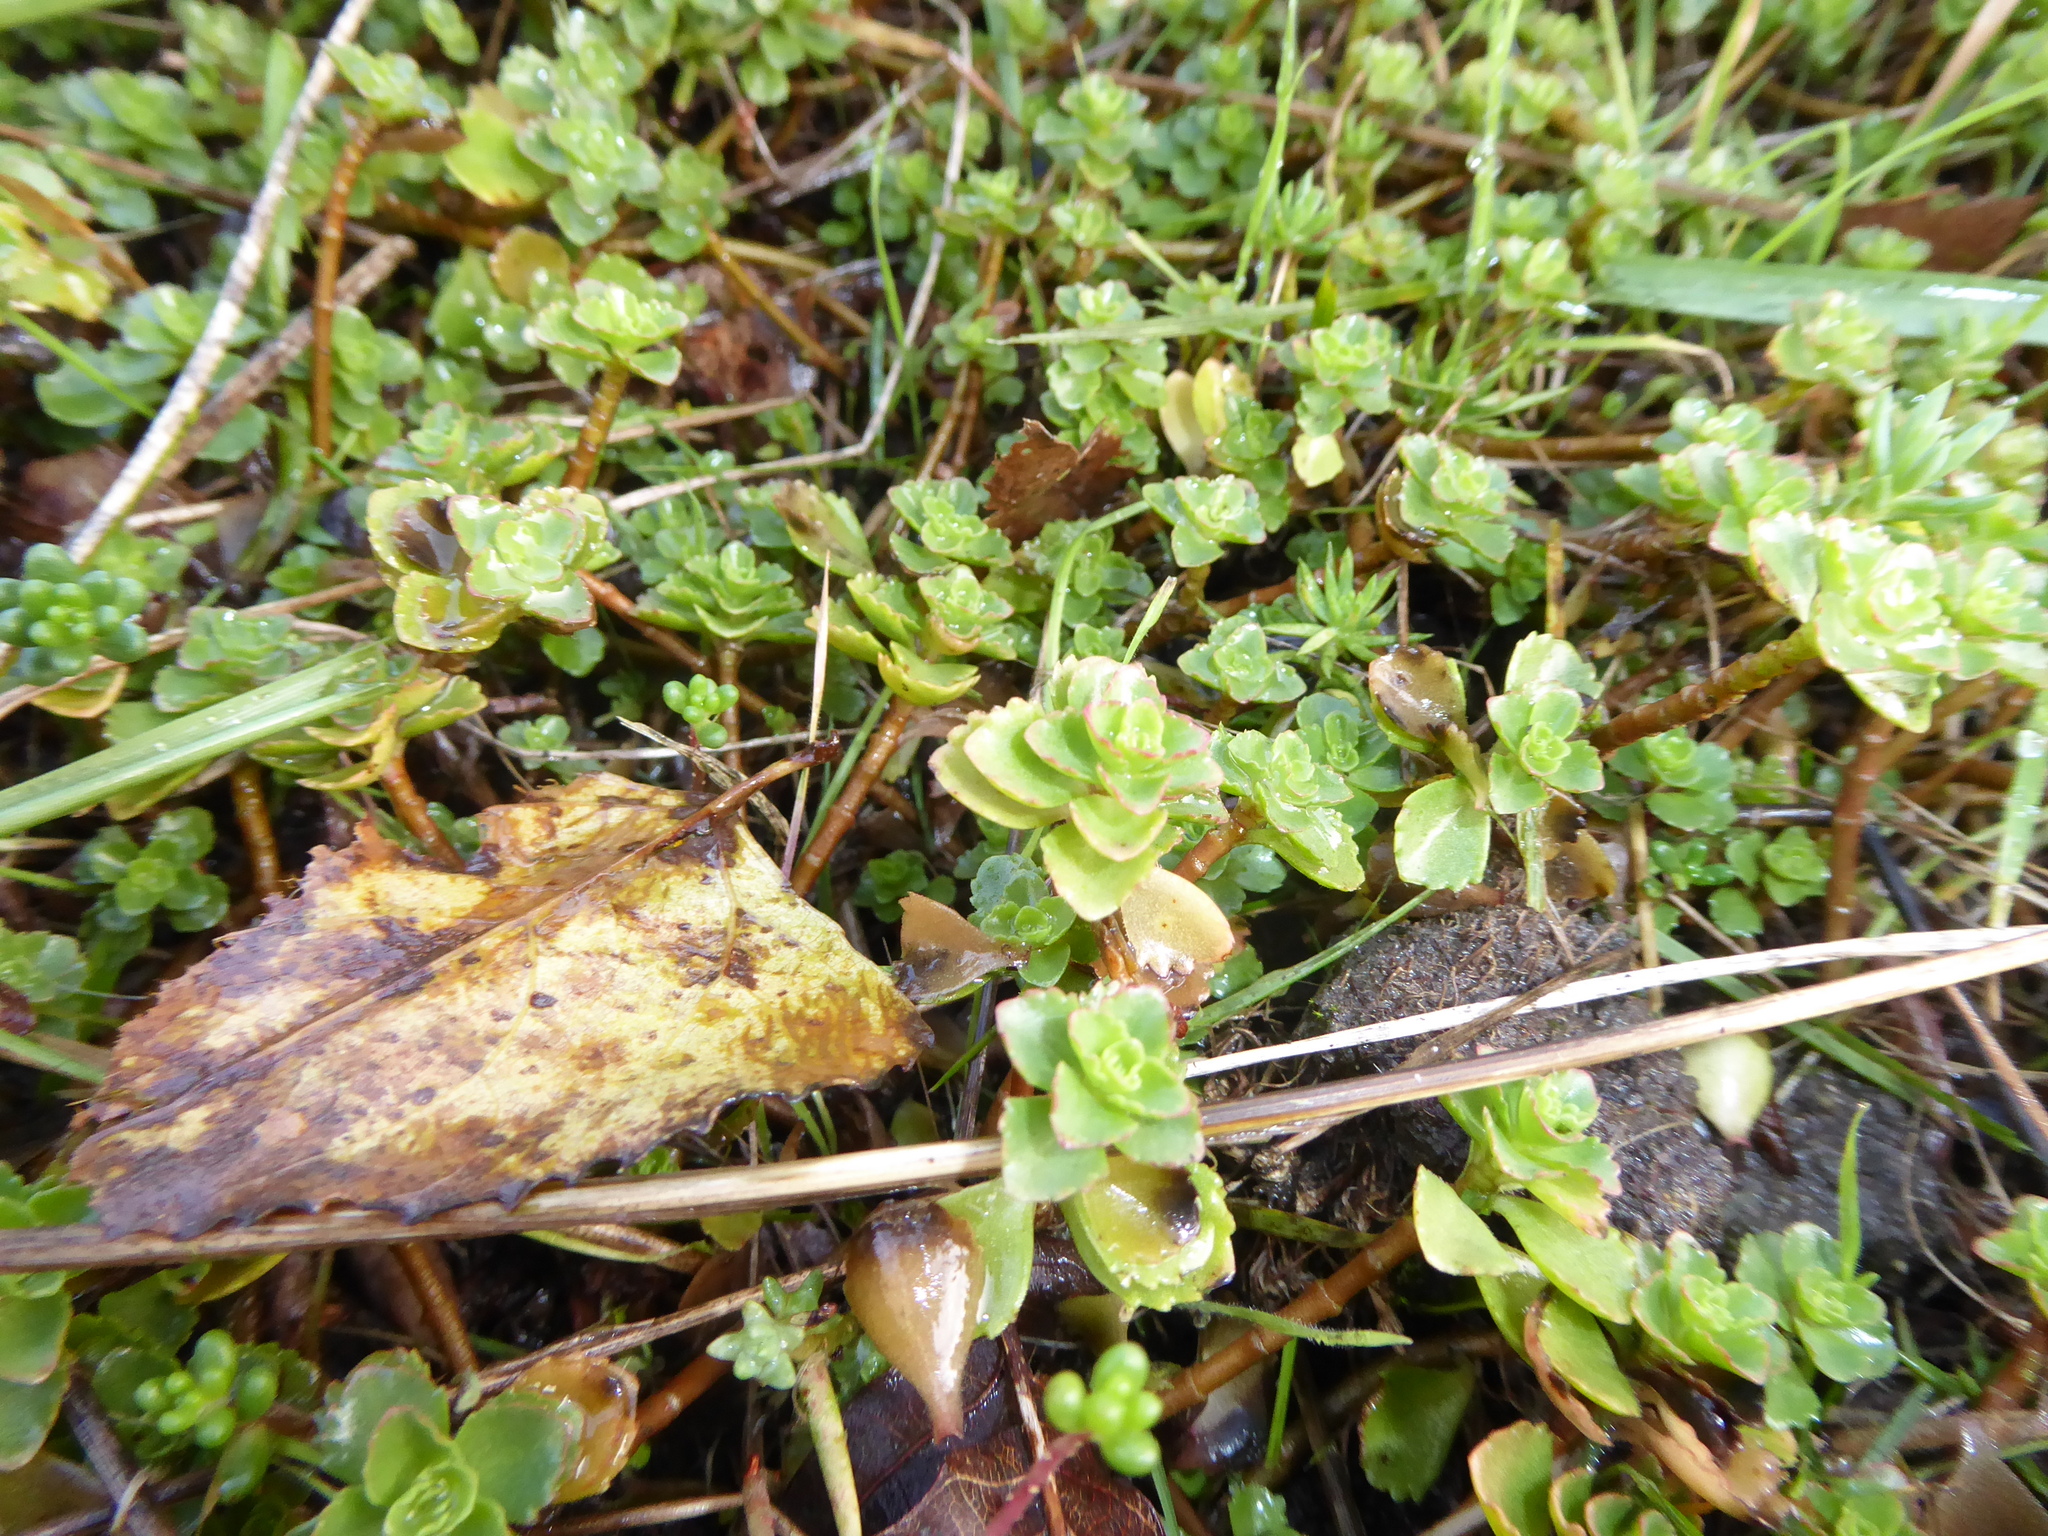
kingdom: Plantae
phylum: Tracheophyta
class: Magnoliopsida
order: Saxifragales
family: Crassulaceae
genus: Phedimus
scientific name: Phedimus spurius
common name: Caucasian stonecrop
